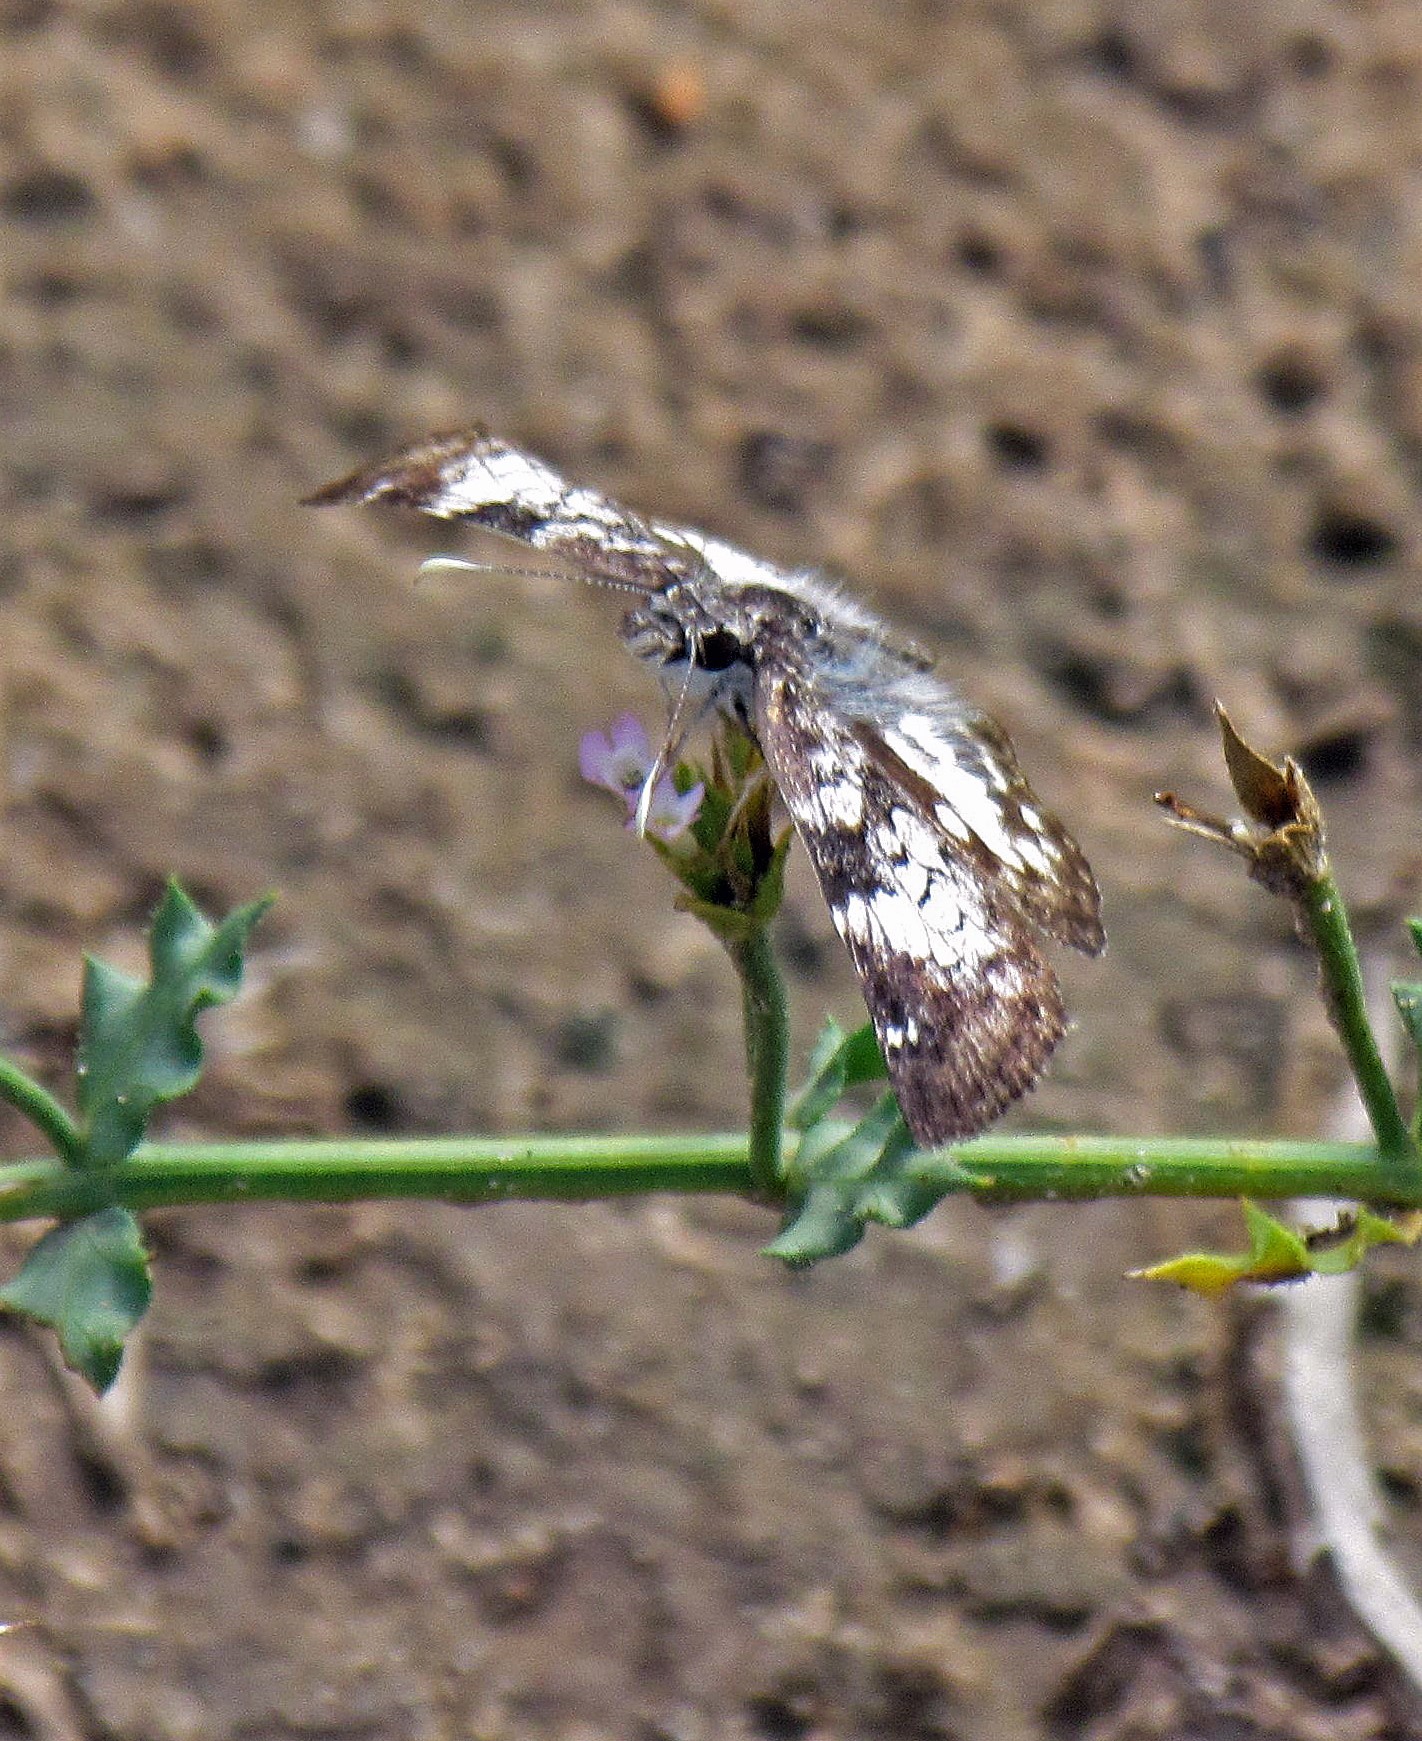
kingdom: Animalia
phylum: Arthropoda
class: Insecta
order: Lepidoptera
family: Hesperiidae
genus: Chiomara
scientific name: Chiomara asychis
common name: White-patterned skipper
